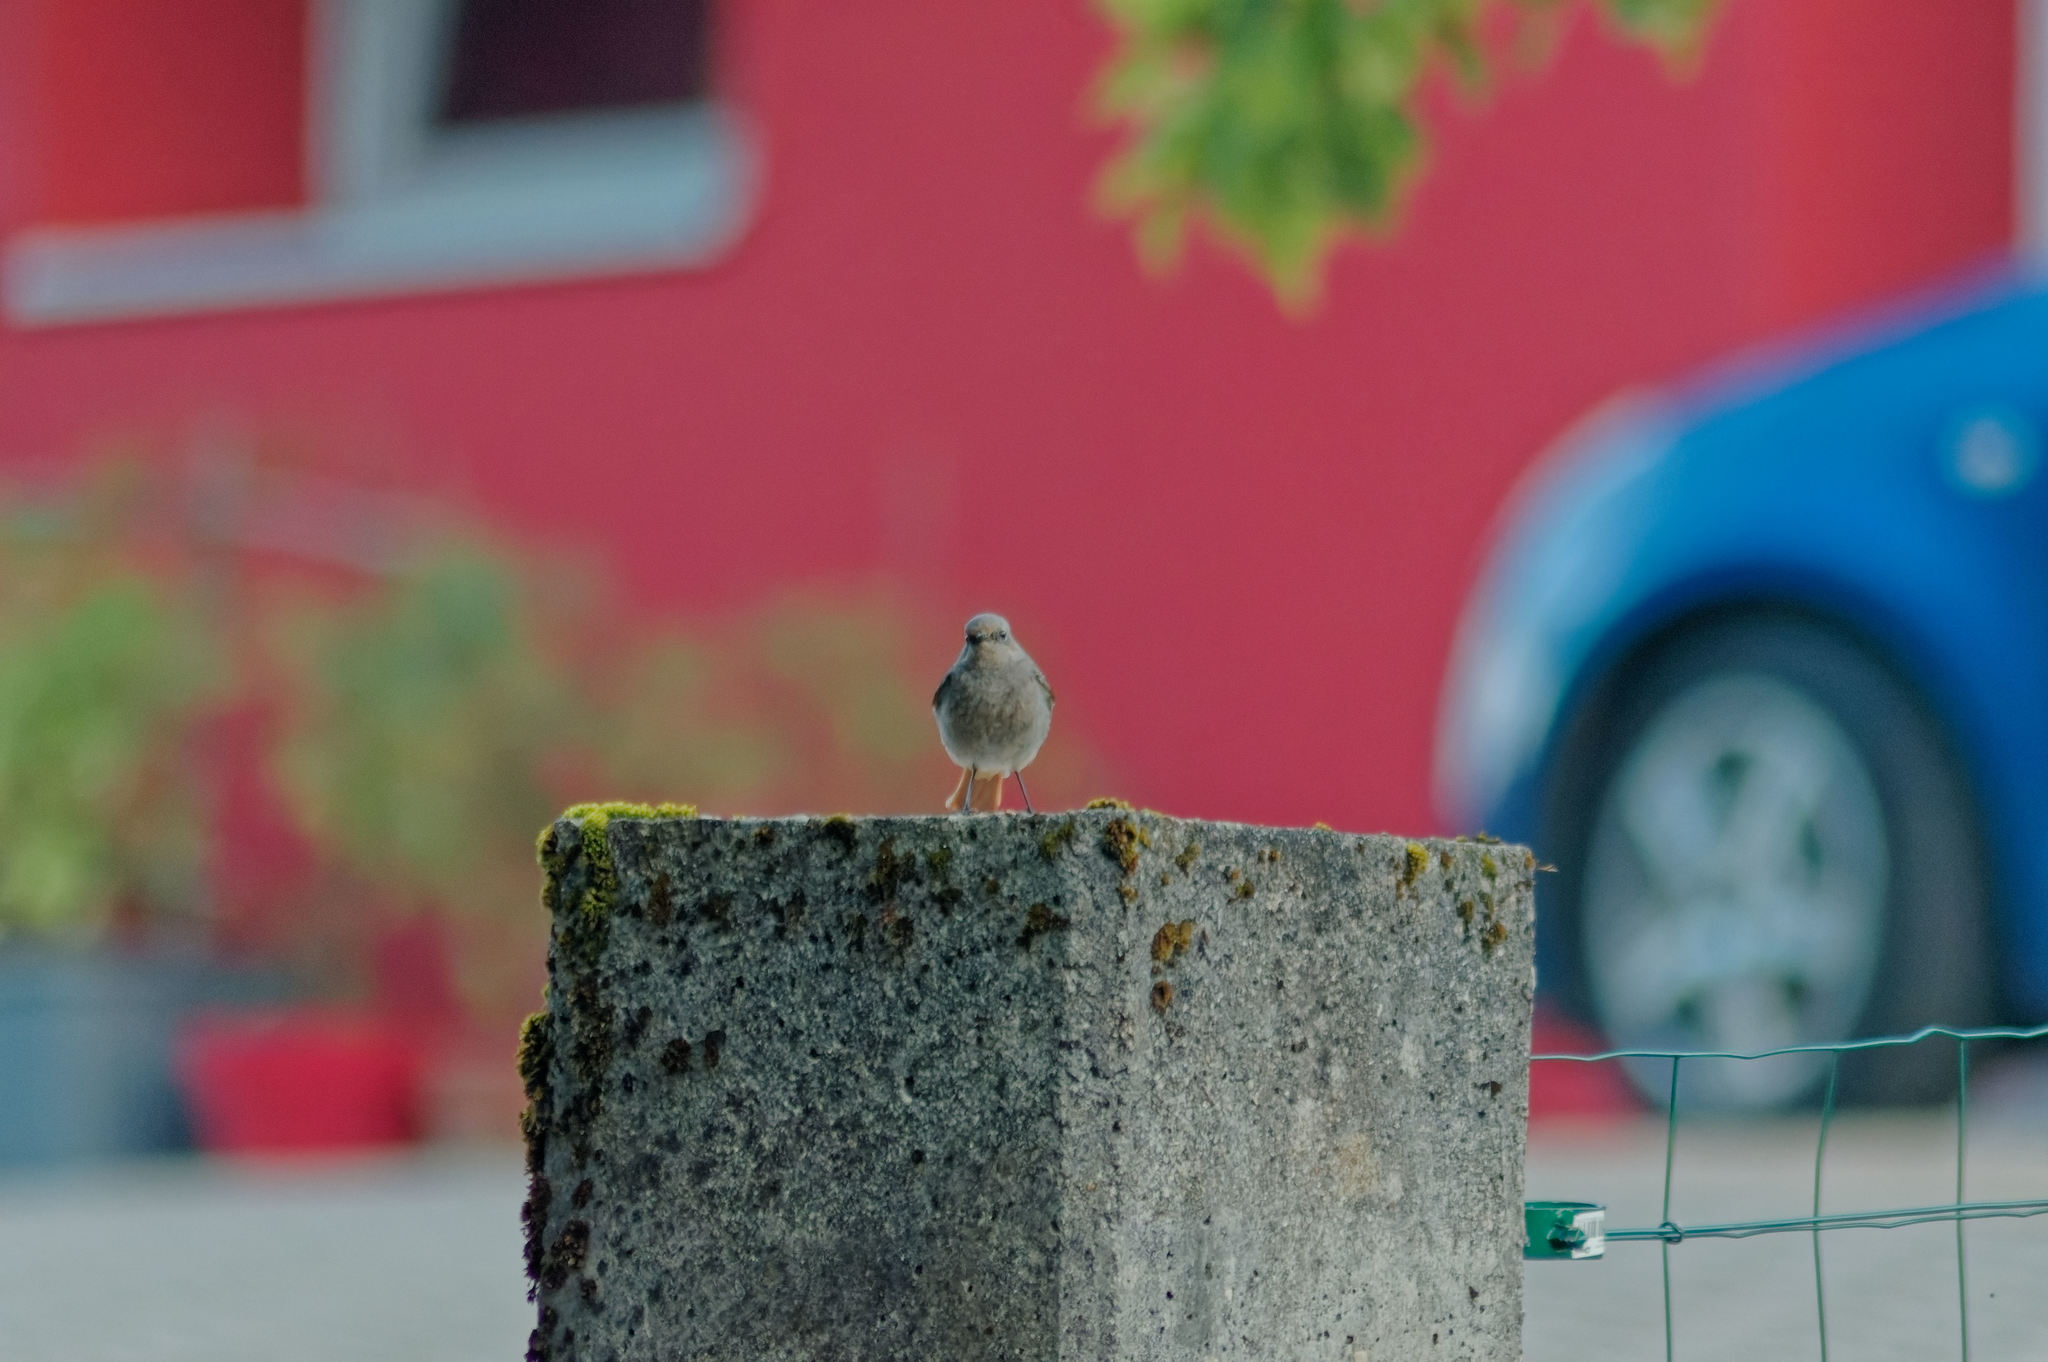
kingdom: Animalia
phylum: Chordata
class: Aves
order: Passeriformes
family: Muscicapidae
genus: Phoenicurus
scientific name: Phoenicurus ochruros
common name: Black redstart
